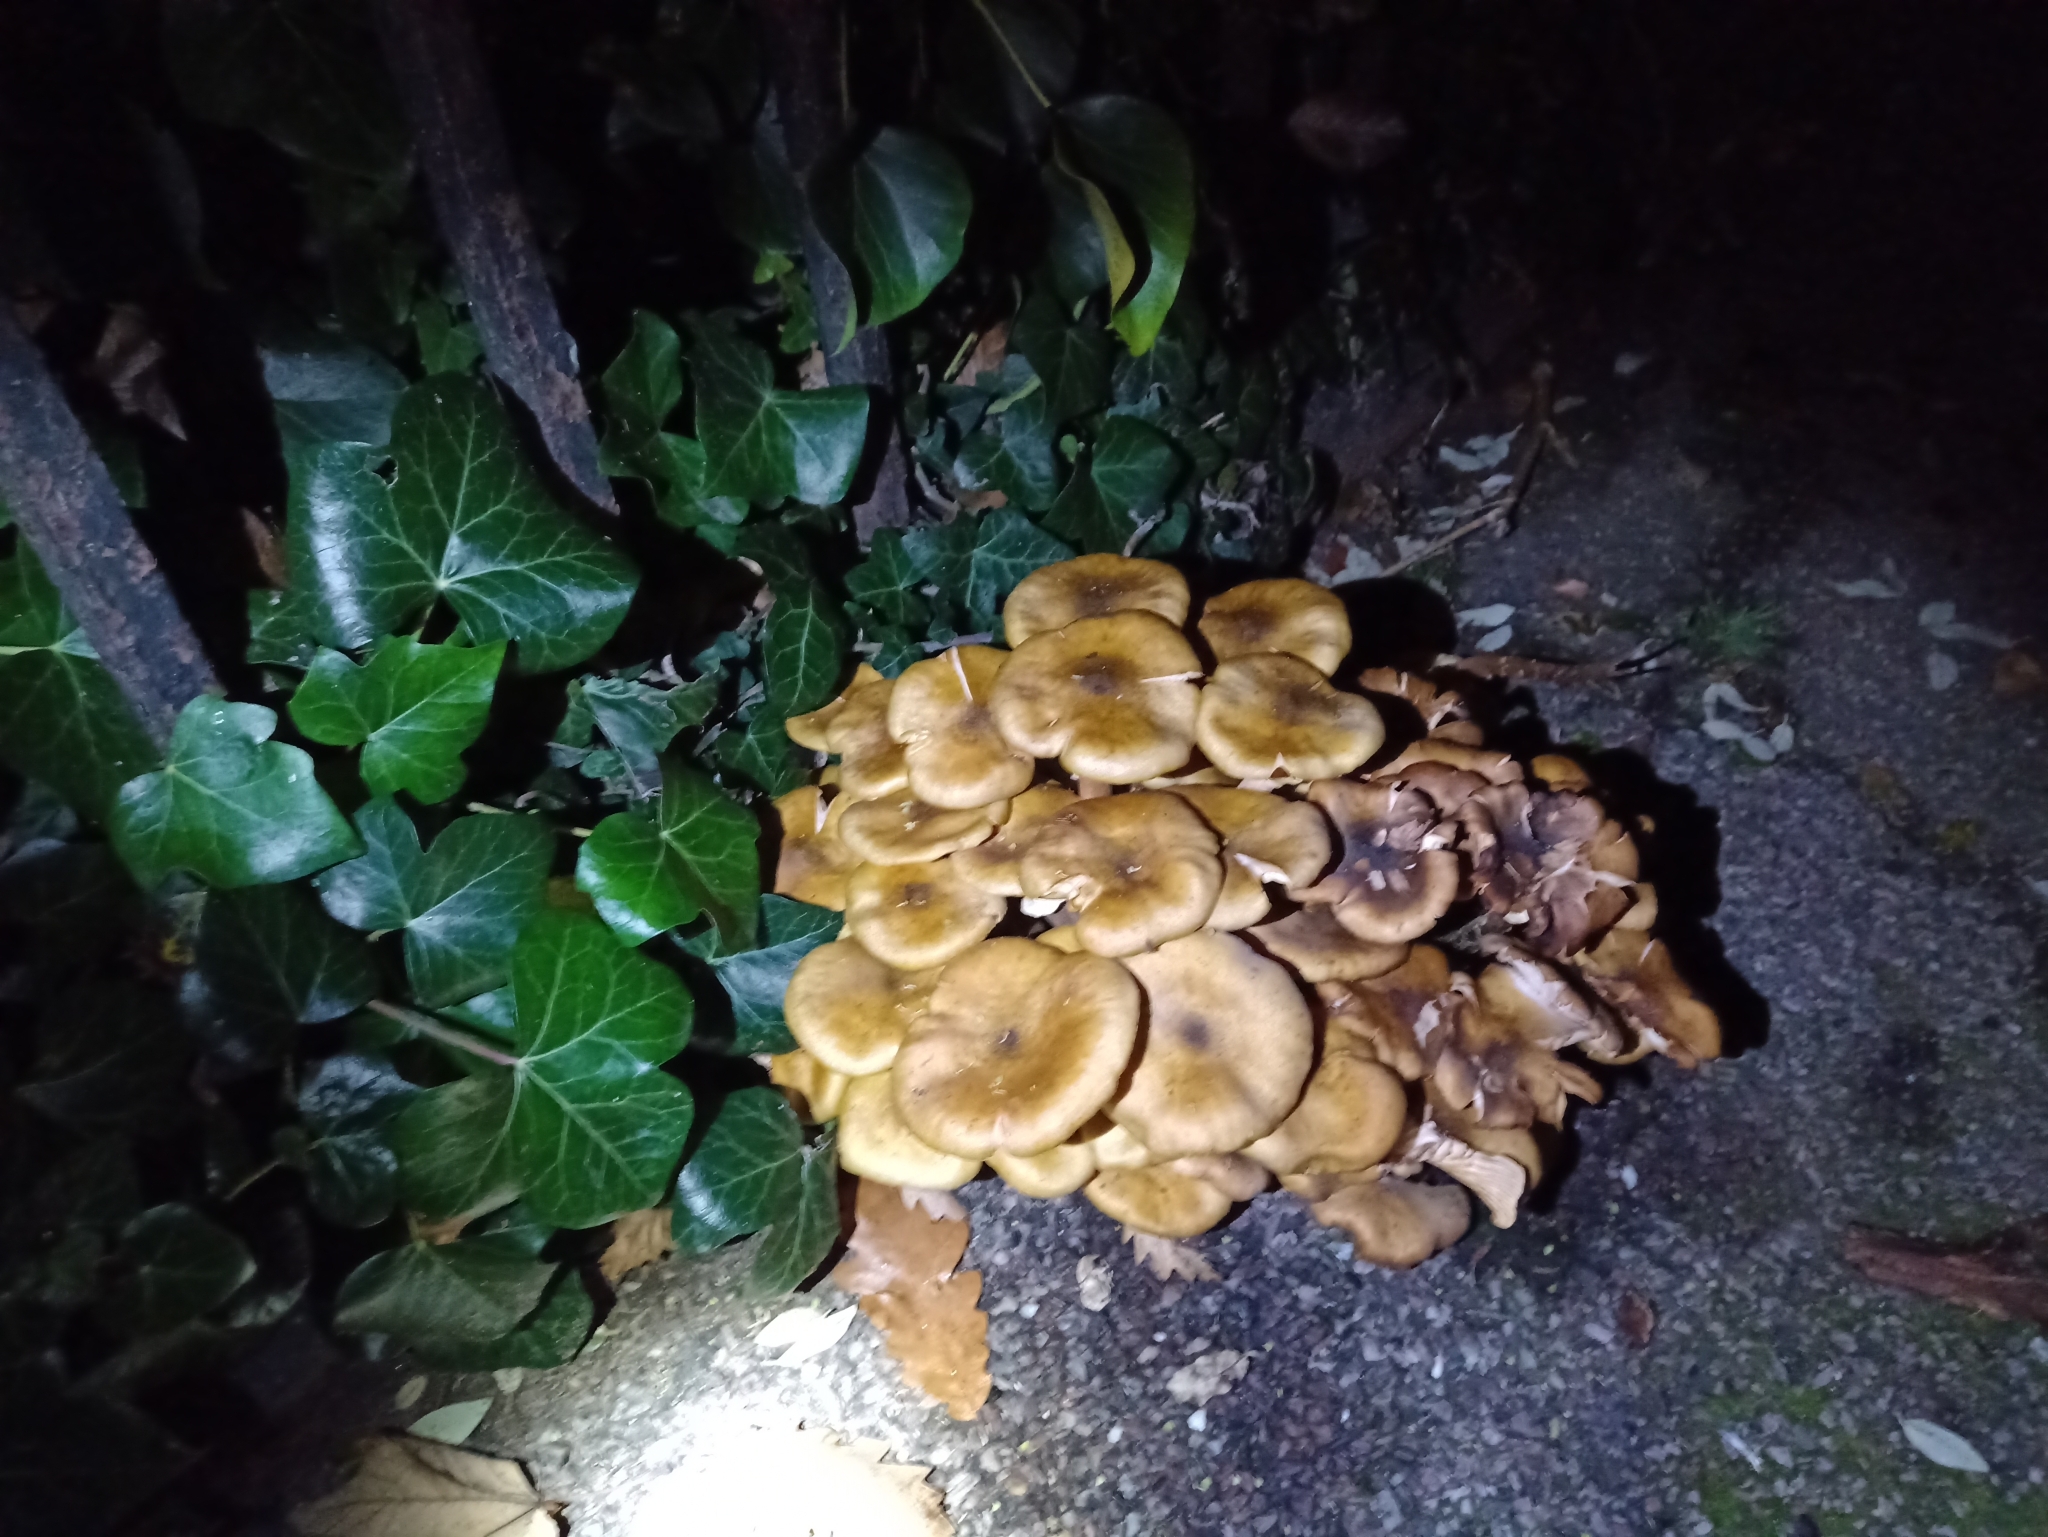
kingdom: Fungi
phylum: Basidiomycota
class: Agaricomycetes
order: Agaricales
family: Physalacriaceae
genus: Armillaria
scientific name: Armillaria mellea
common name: Honey fungus
